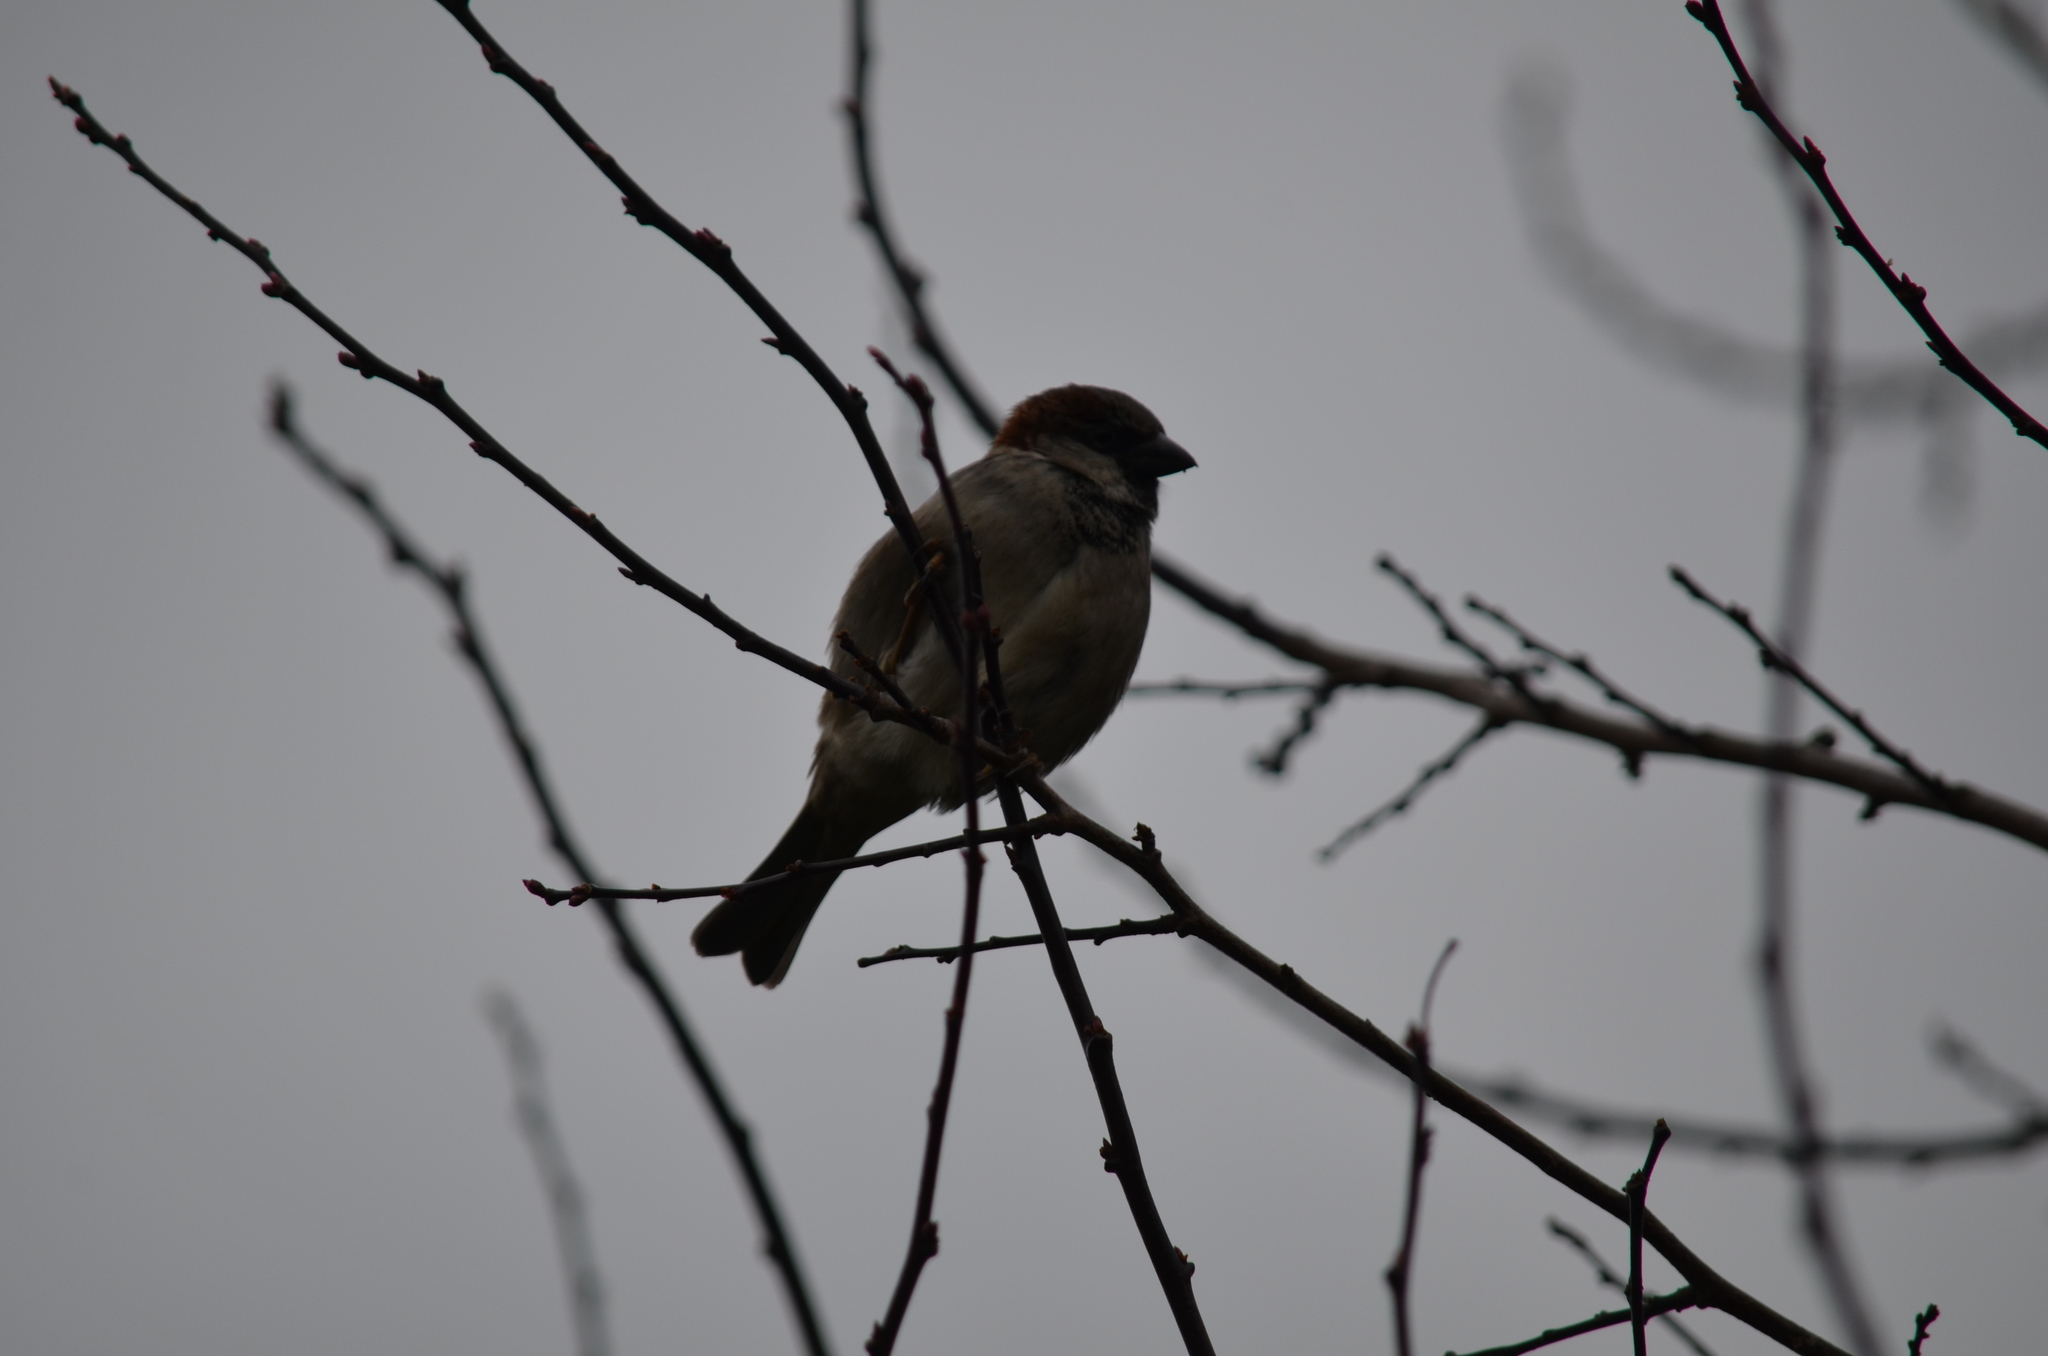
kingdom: Animalia
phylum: Chordata
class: Aves
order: Passeriformes
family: Passeridae
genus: Passer
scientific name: Passer domesticus
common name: House sparrow
